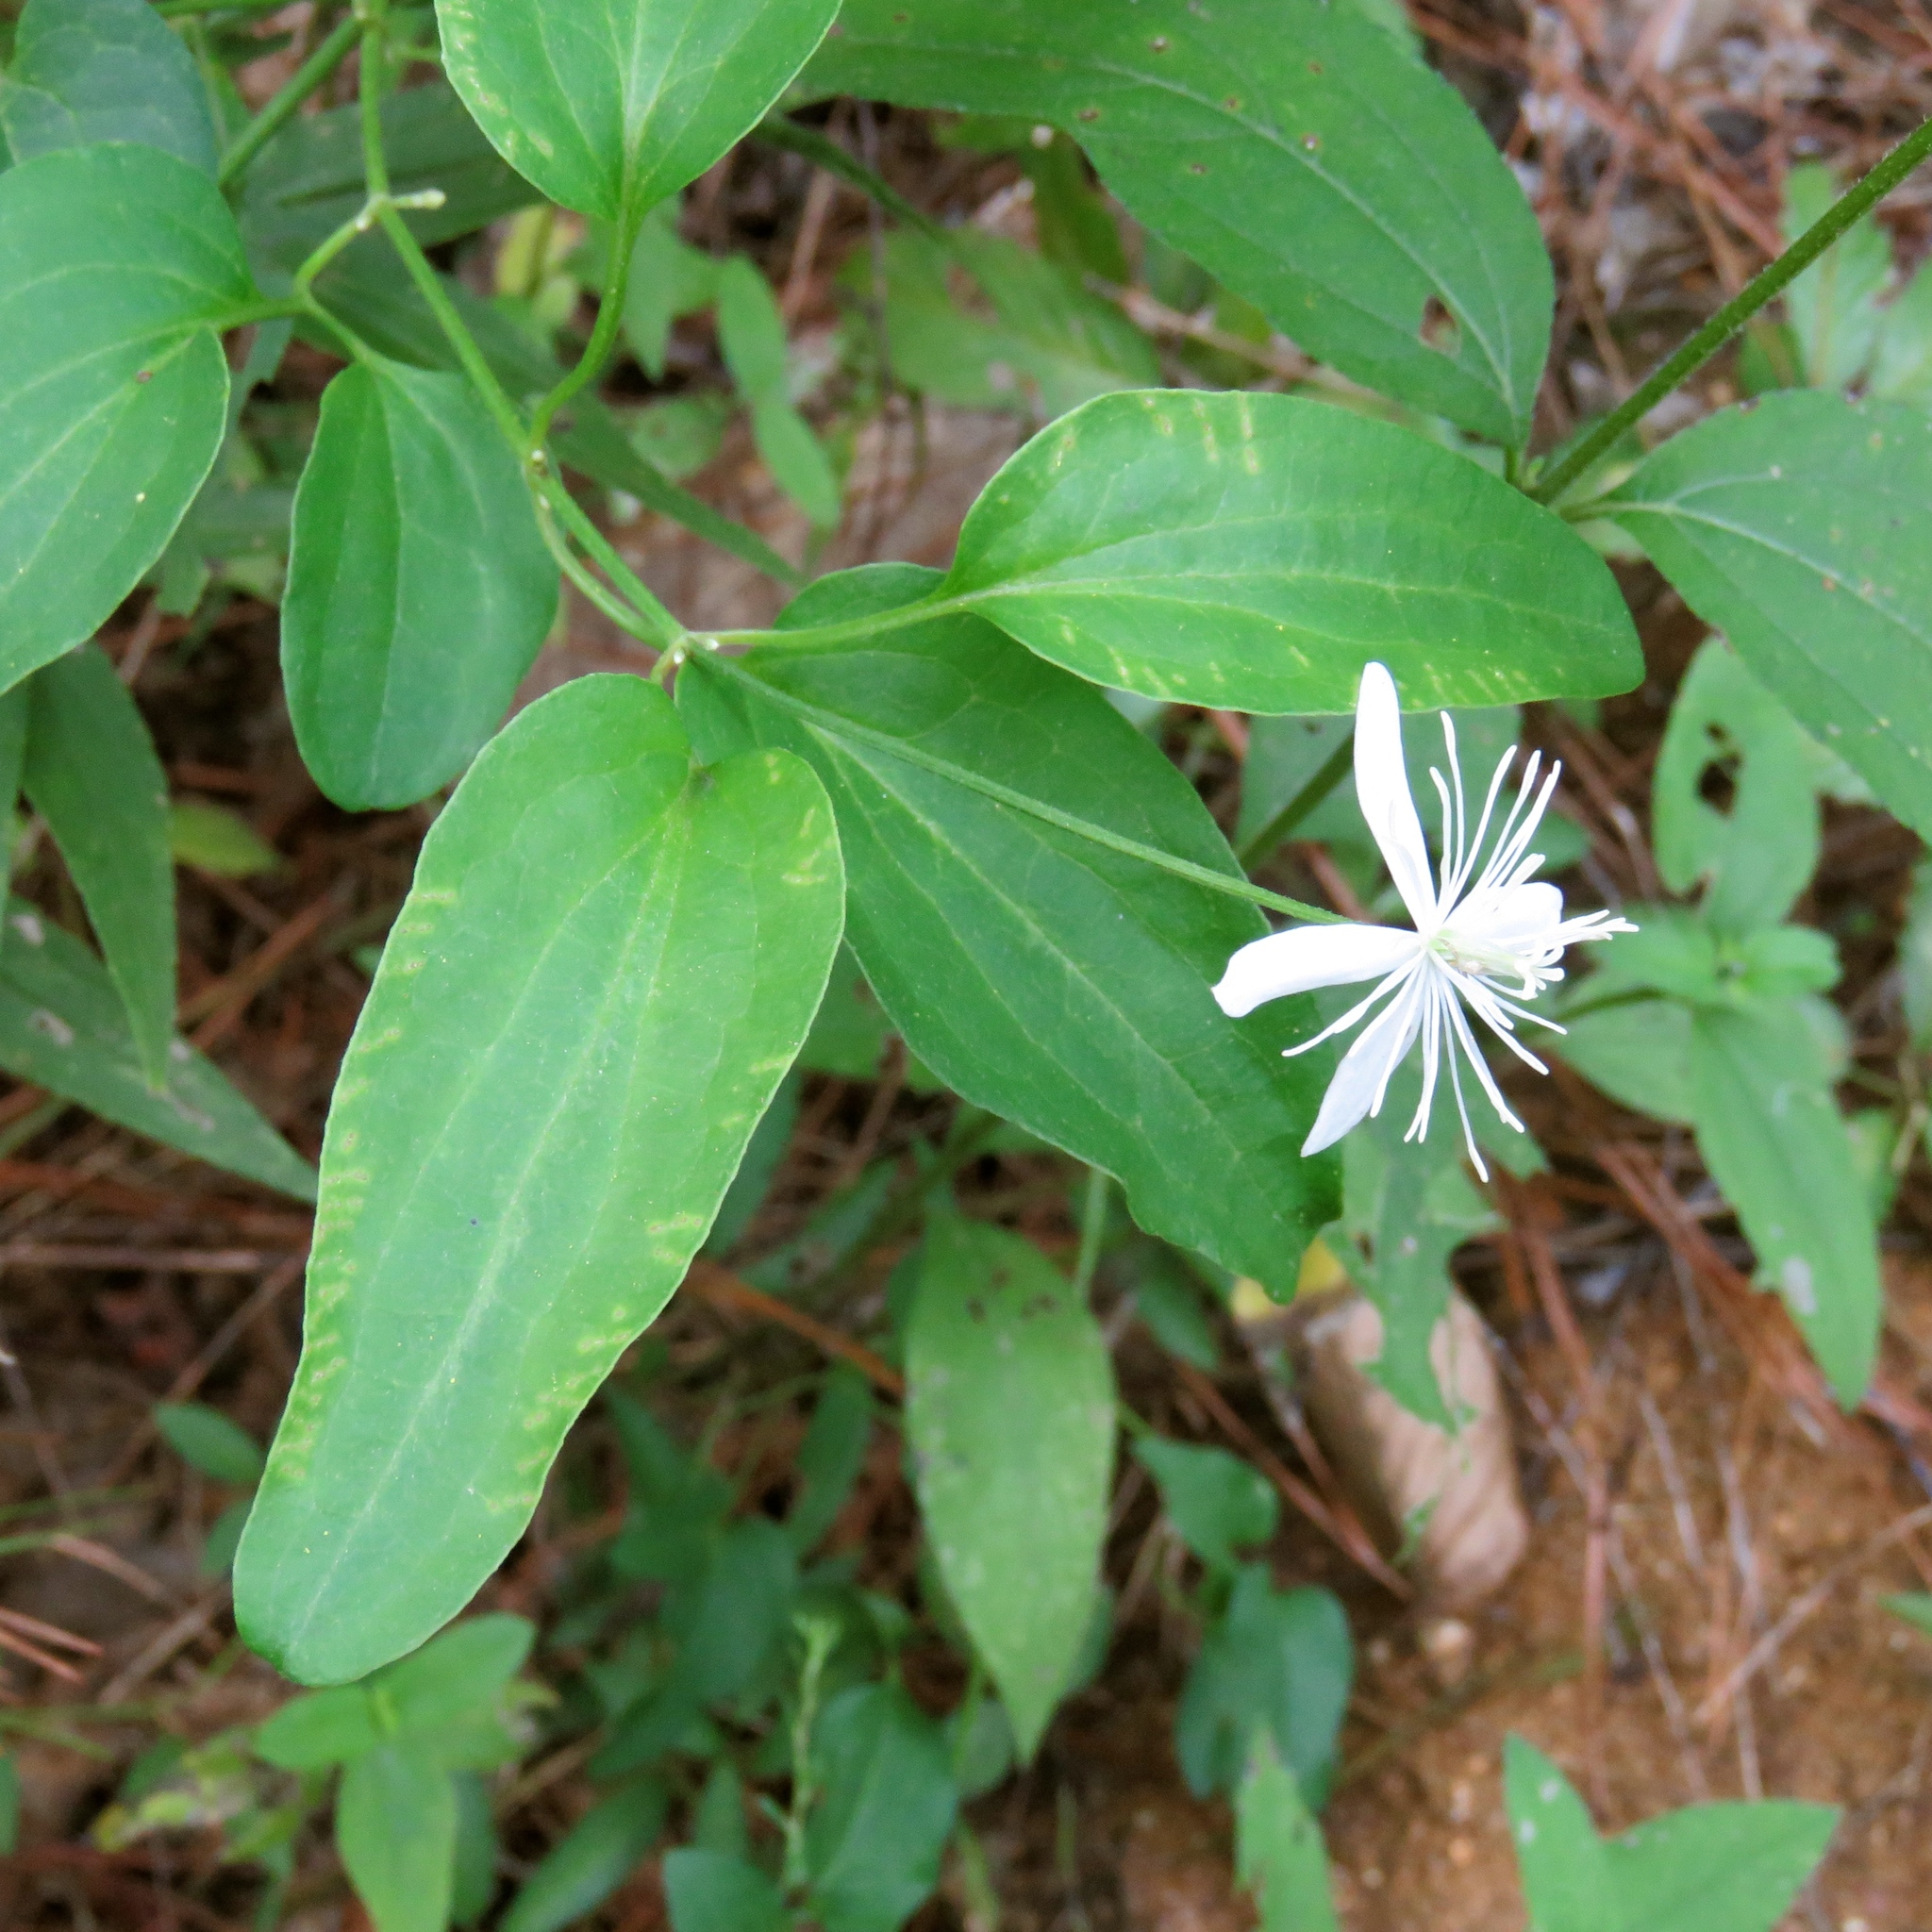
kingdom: Plantae
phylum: Tracheophyta
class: Magnoliopsida
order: Ranunculales
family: Ranunculaceae
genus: Clematis
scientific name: Clematis terniflora
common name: Sweet autumn clematis
